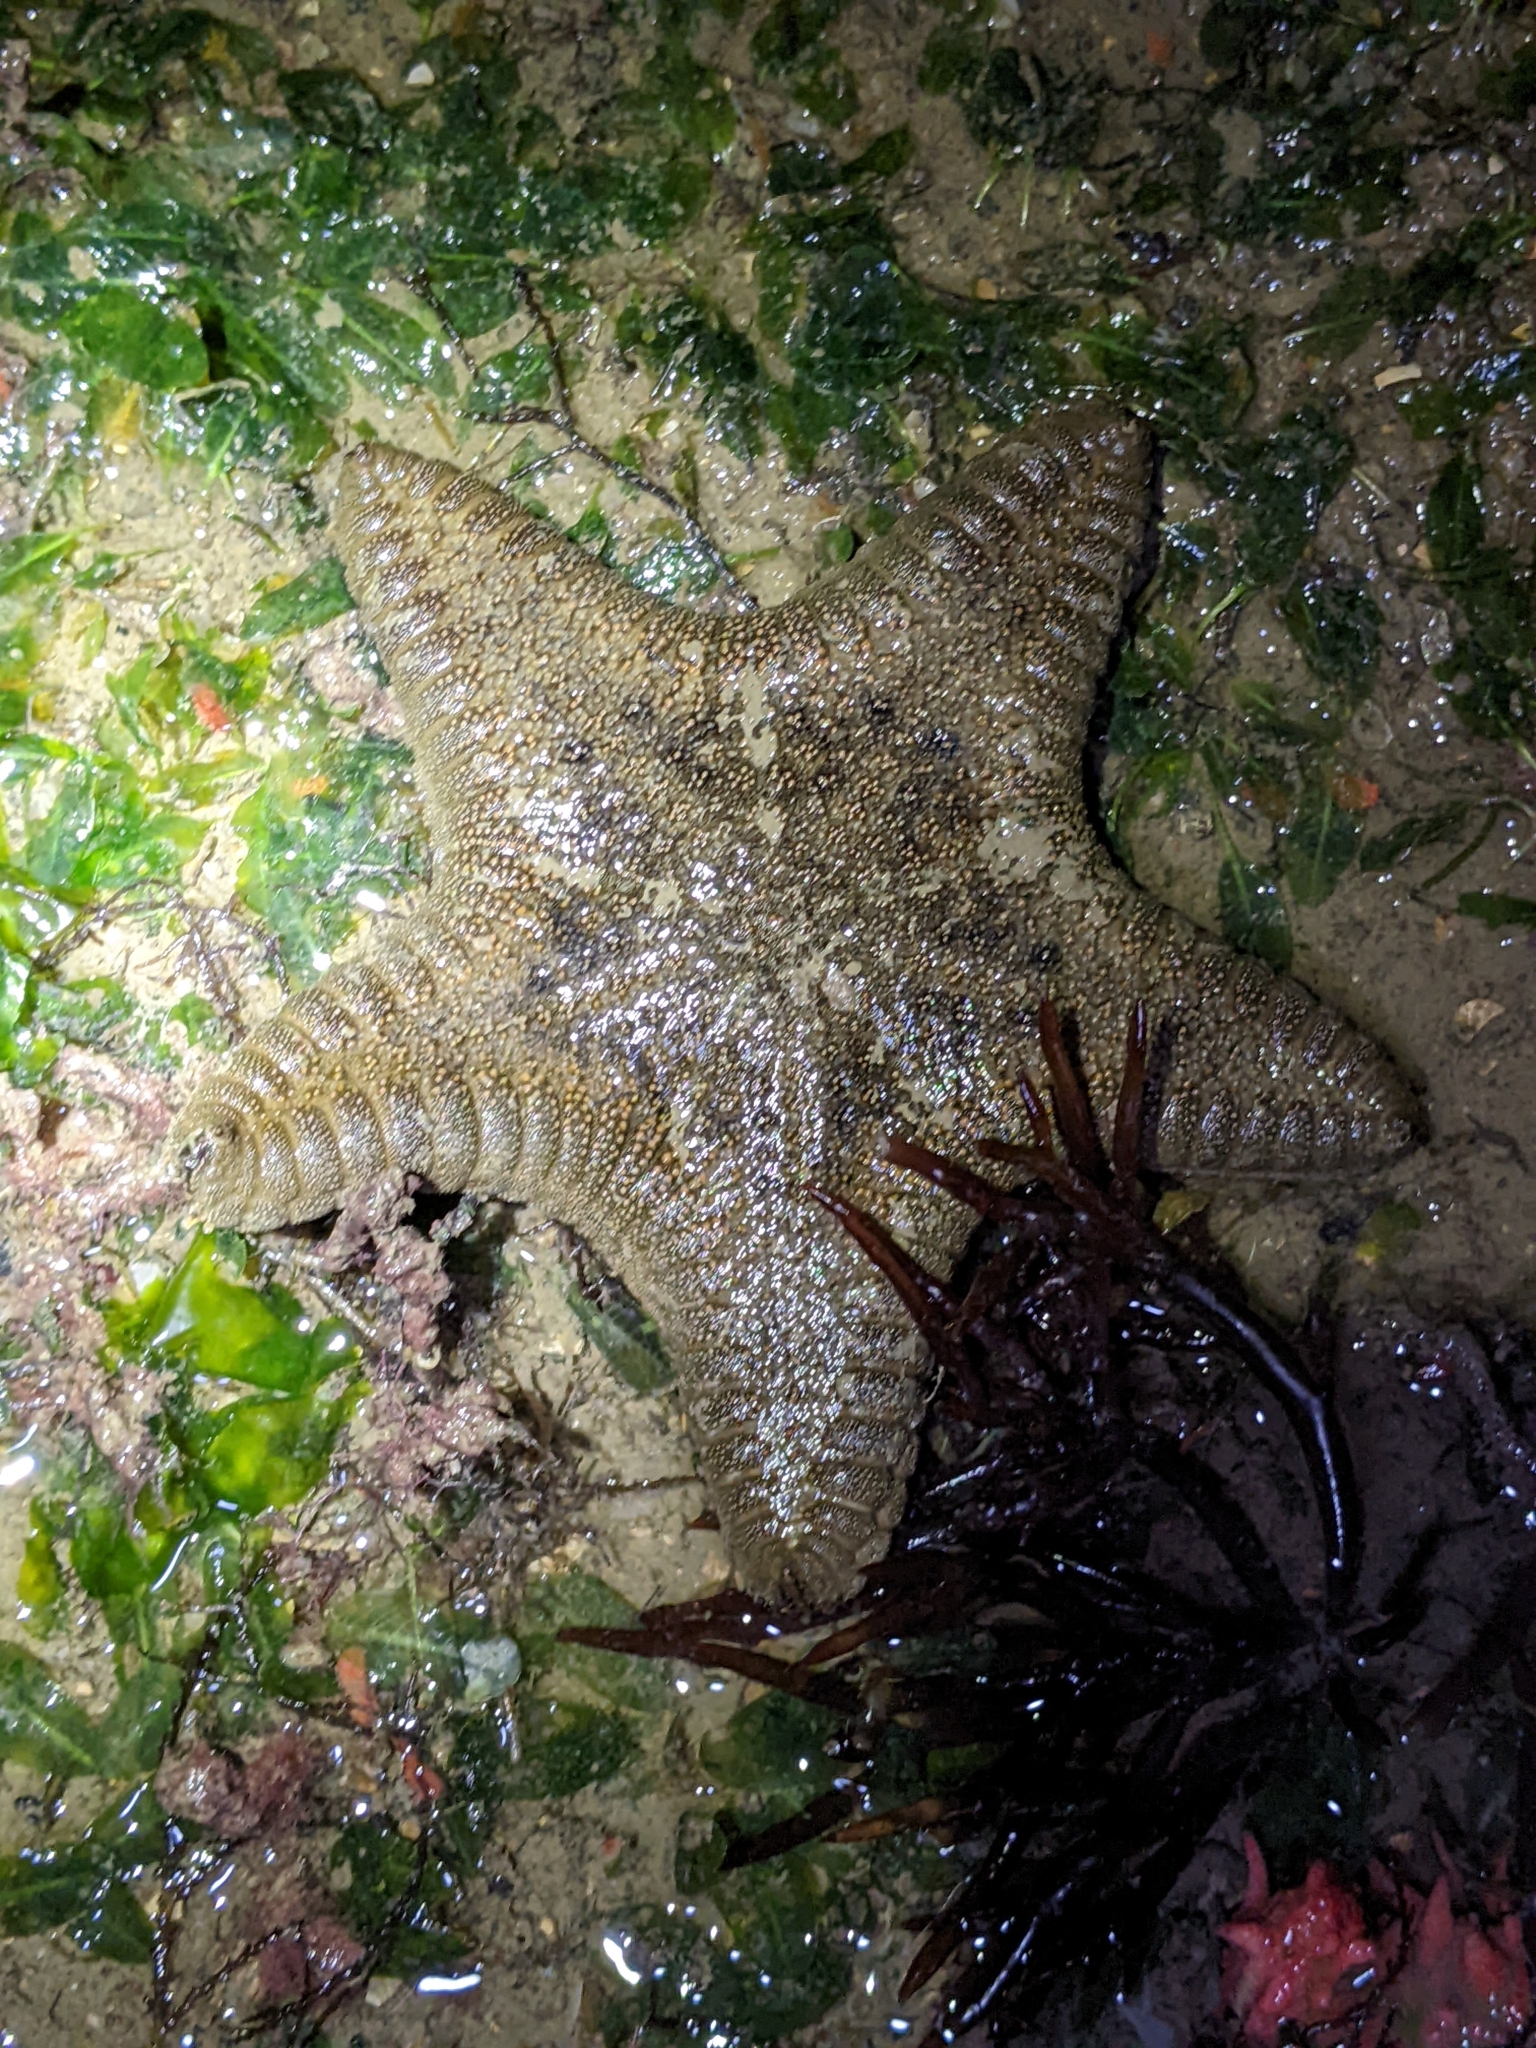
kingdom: Animalia
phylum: Echinodermata
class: Asteroidea
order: Valvatida
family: Goniasteridae
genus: Goniodiscaster
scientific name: Goniodiscaster scaber
